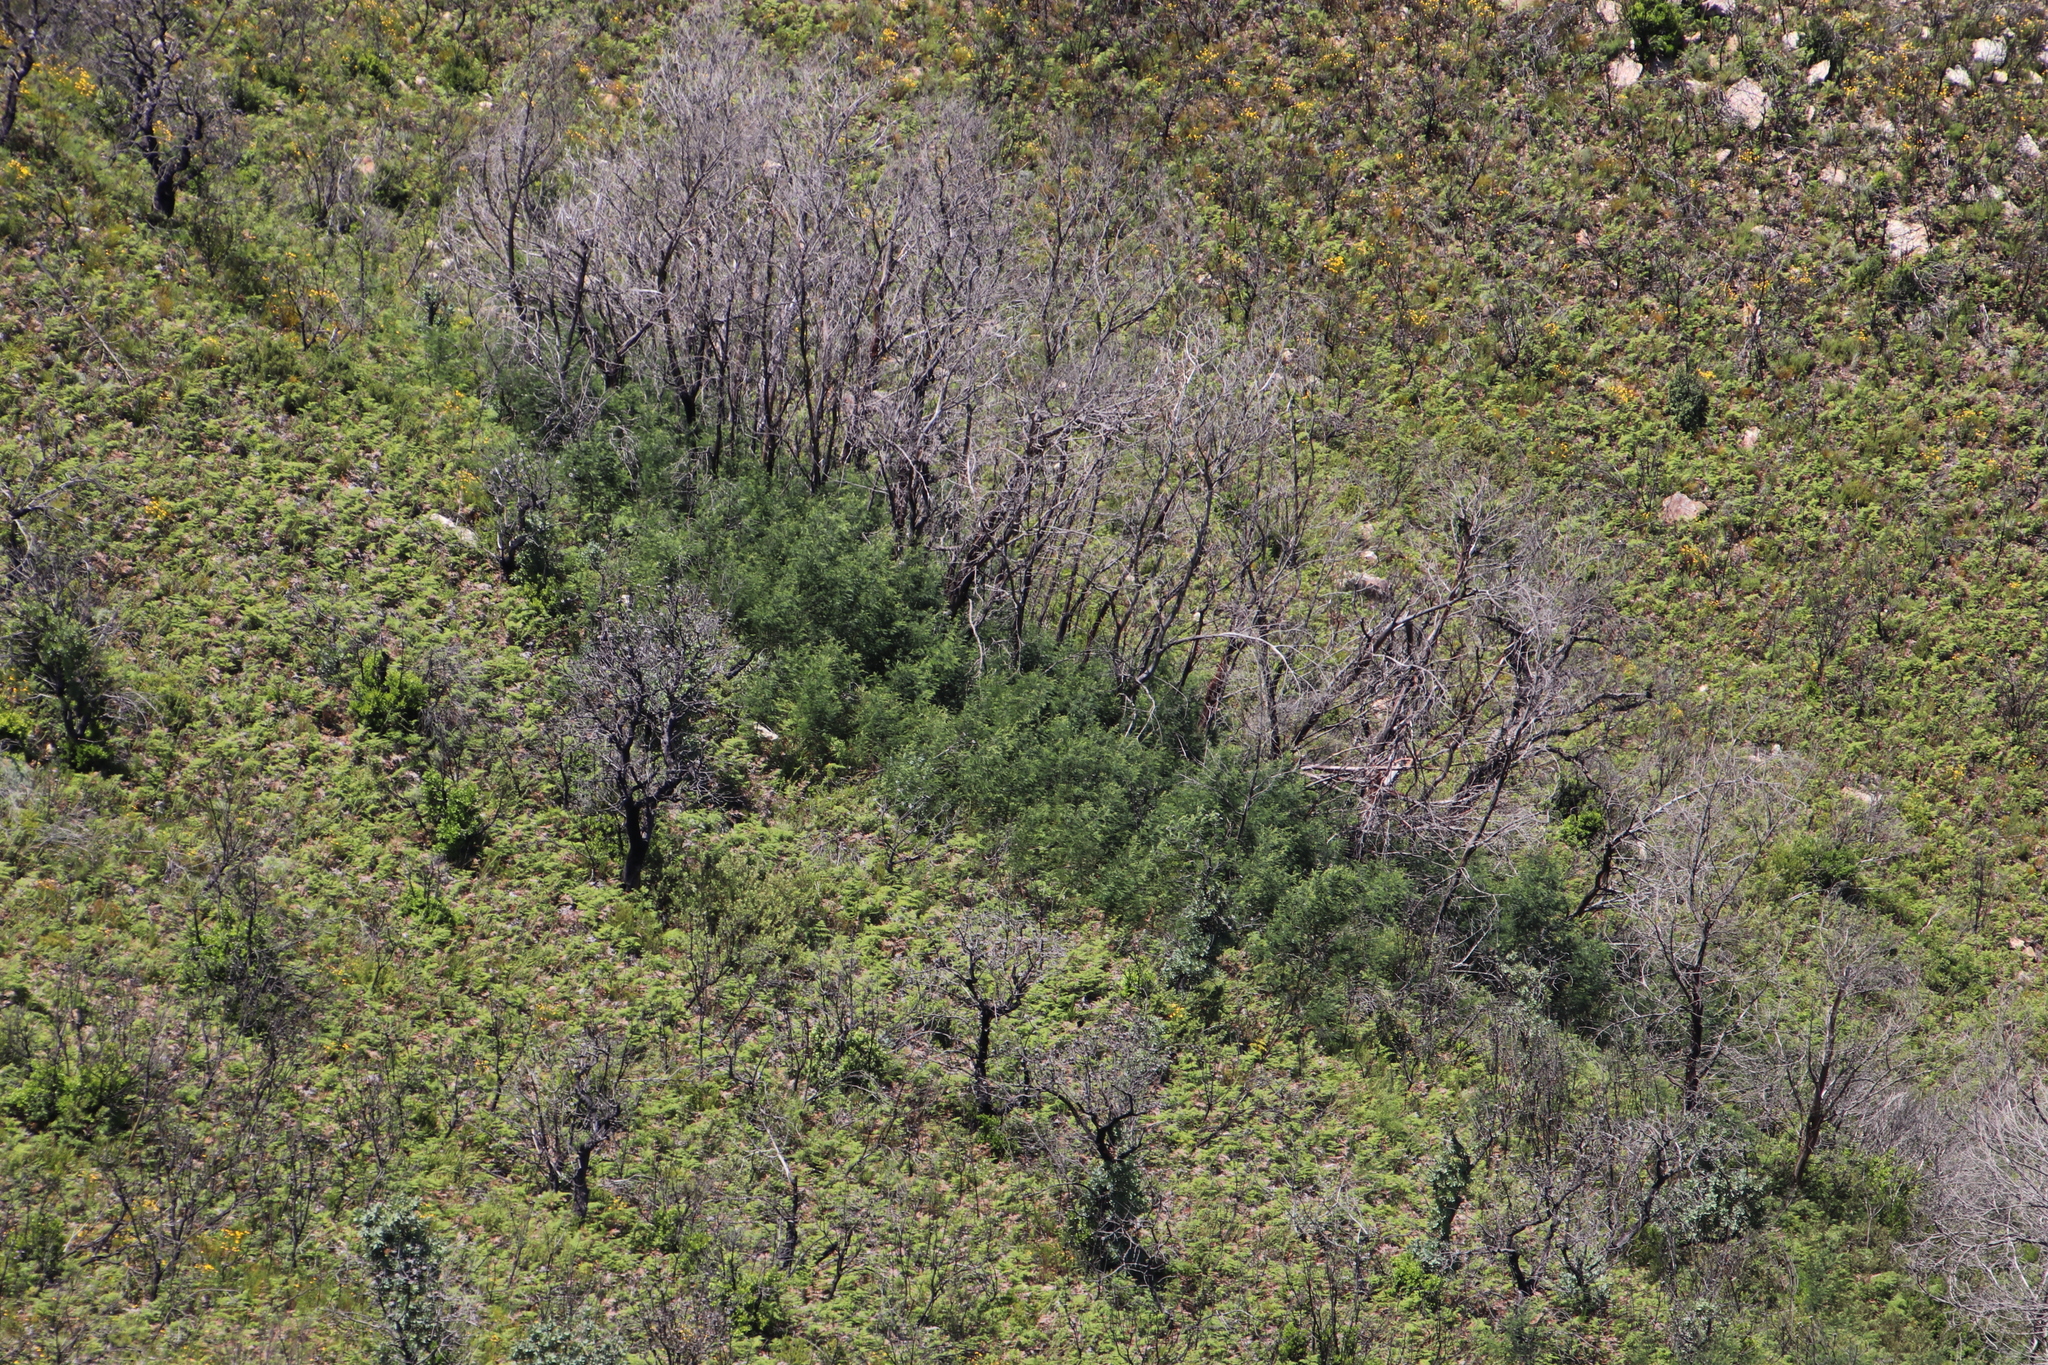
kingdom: Plantae
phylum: Tracheophyta
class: Magnoliopsida
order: Fabales
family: Fabaceae
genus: Acacia
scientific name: Acacia mearnsii
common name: Black wattle
